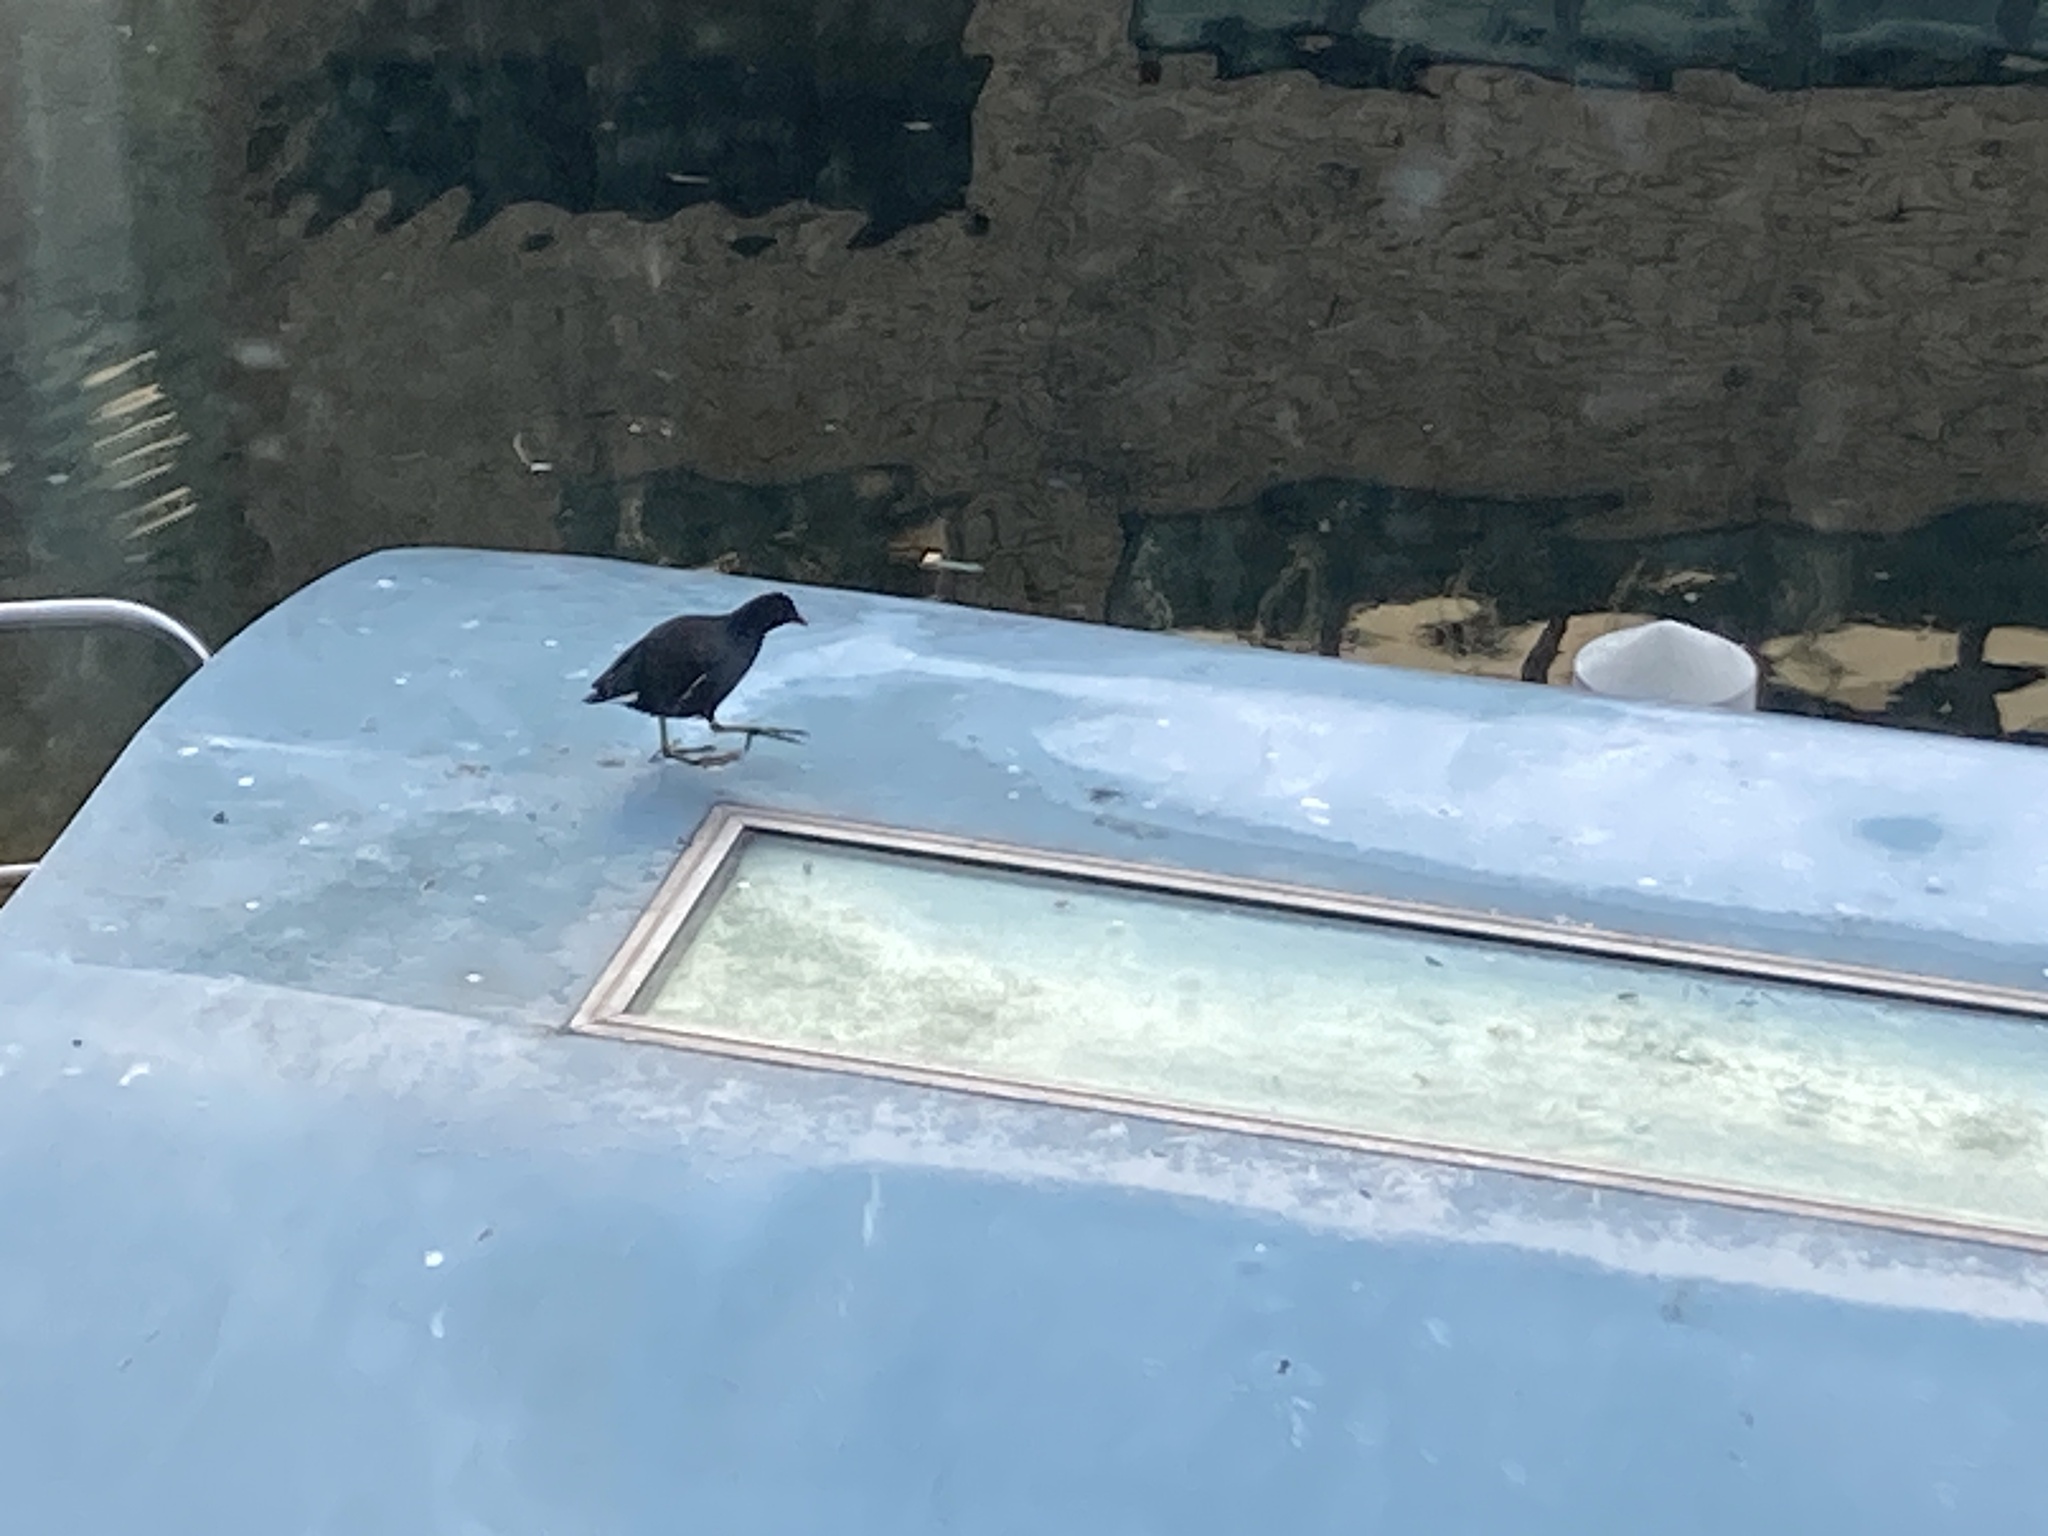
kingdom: Animalia
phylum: Chordata
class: Aves
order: Gruiformes
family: Rallidae
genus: Gallinula
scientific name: Gallinula chloropus
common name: Common moorhen
